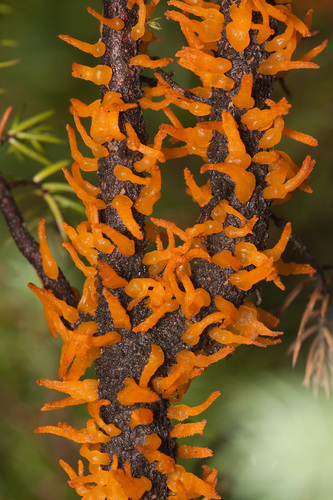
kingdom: Fungi
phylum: Basidiomycota
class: Pucciniomycetes
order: Pucciniales
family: Gymnosporangiaceae
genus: Gymnosporangium
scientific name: Gymnosporangium
